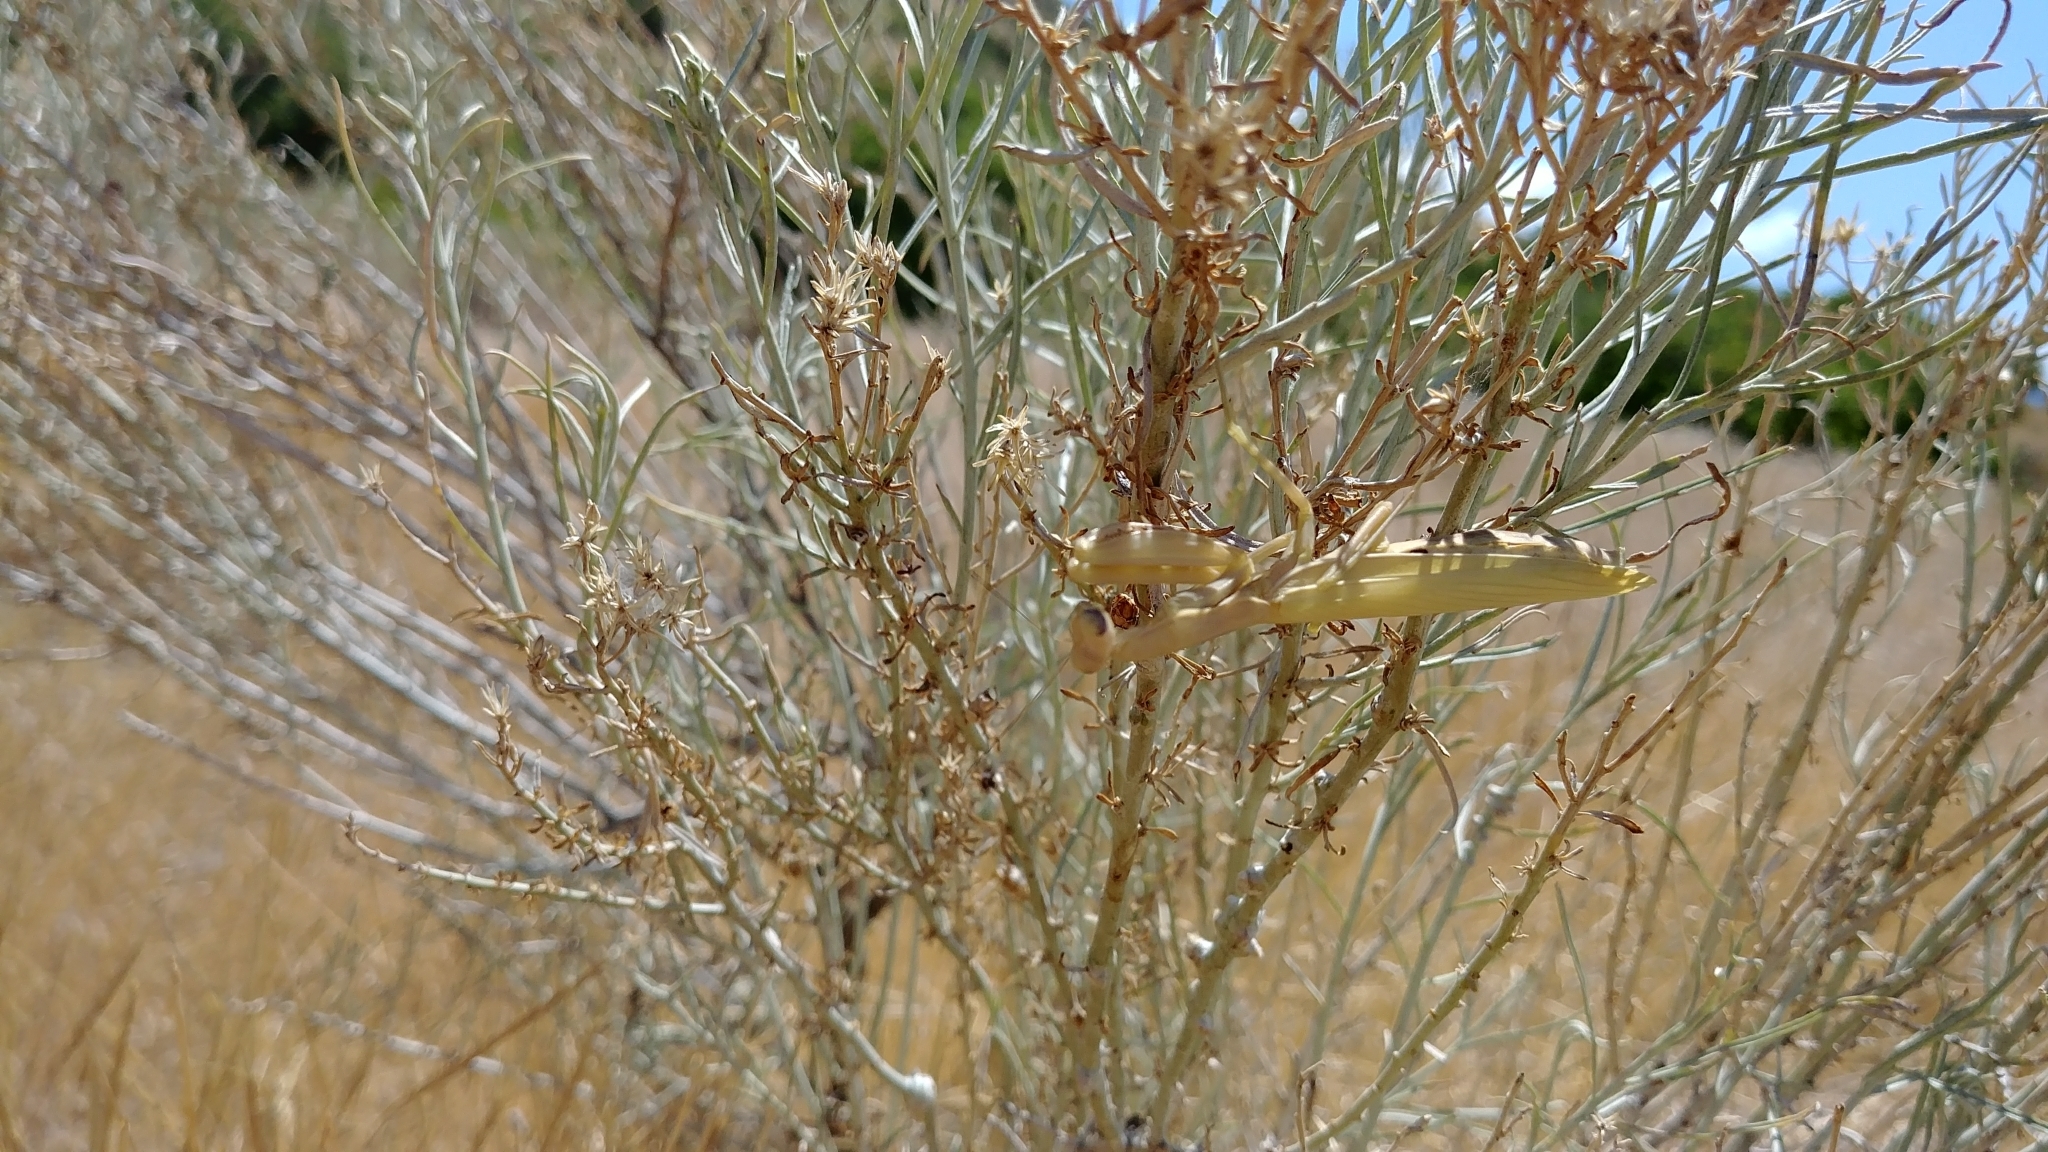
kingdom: Animalia
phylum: Arthropoda
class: Insecta
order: Mantodea
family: Mantidae
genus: Mantis
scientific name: Mantis religiosa
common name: Praying mantis
